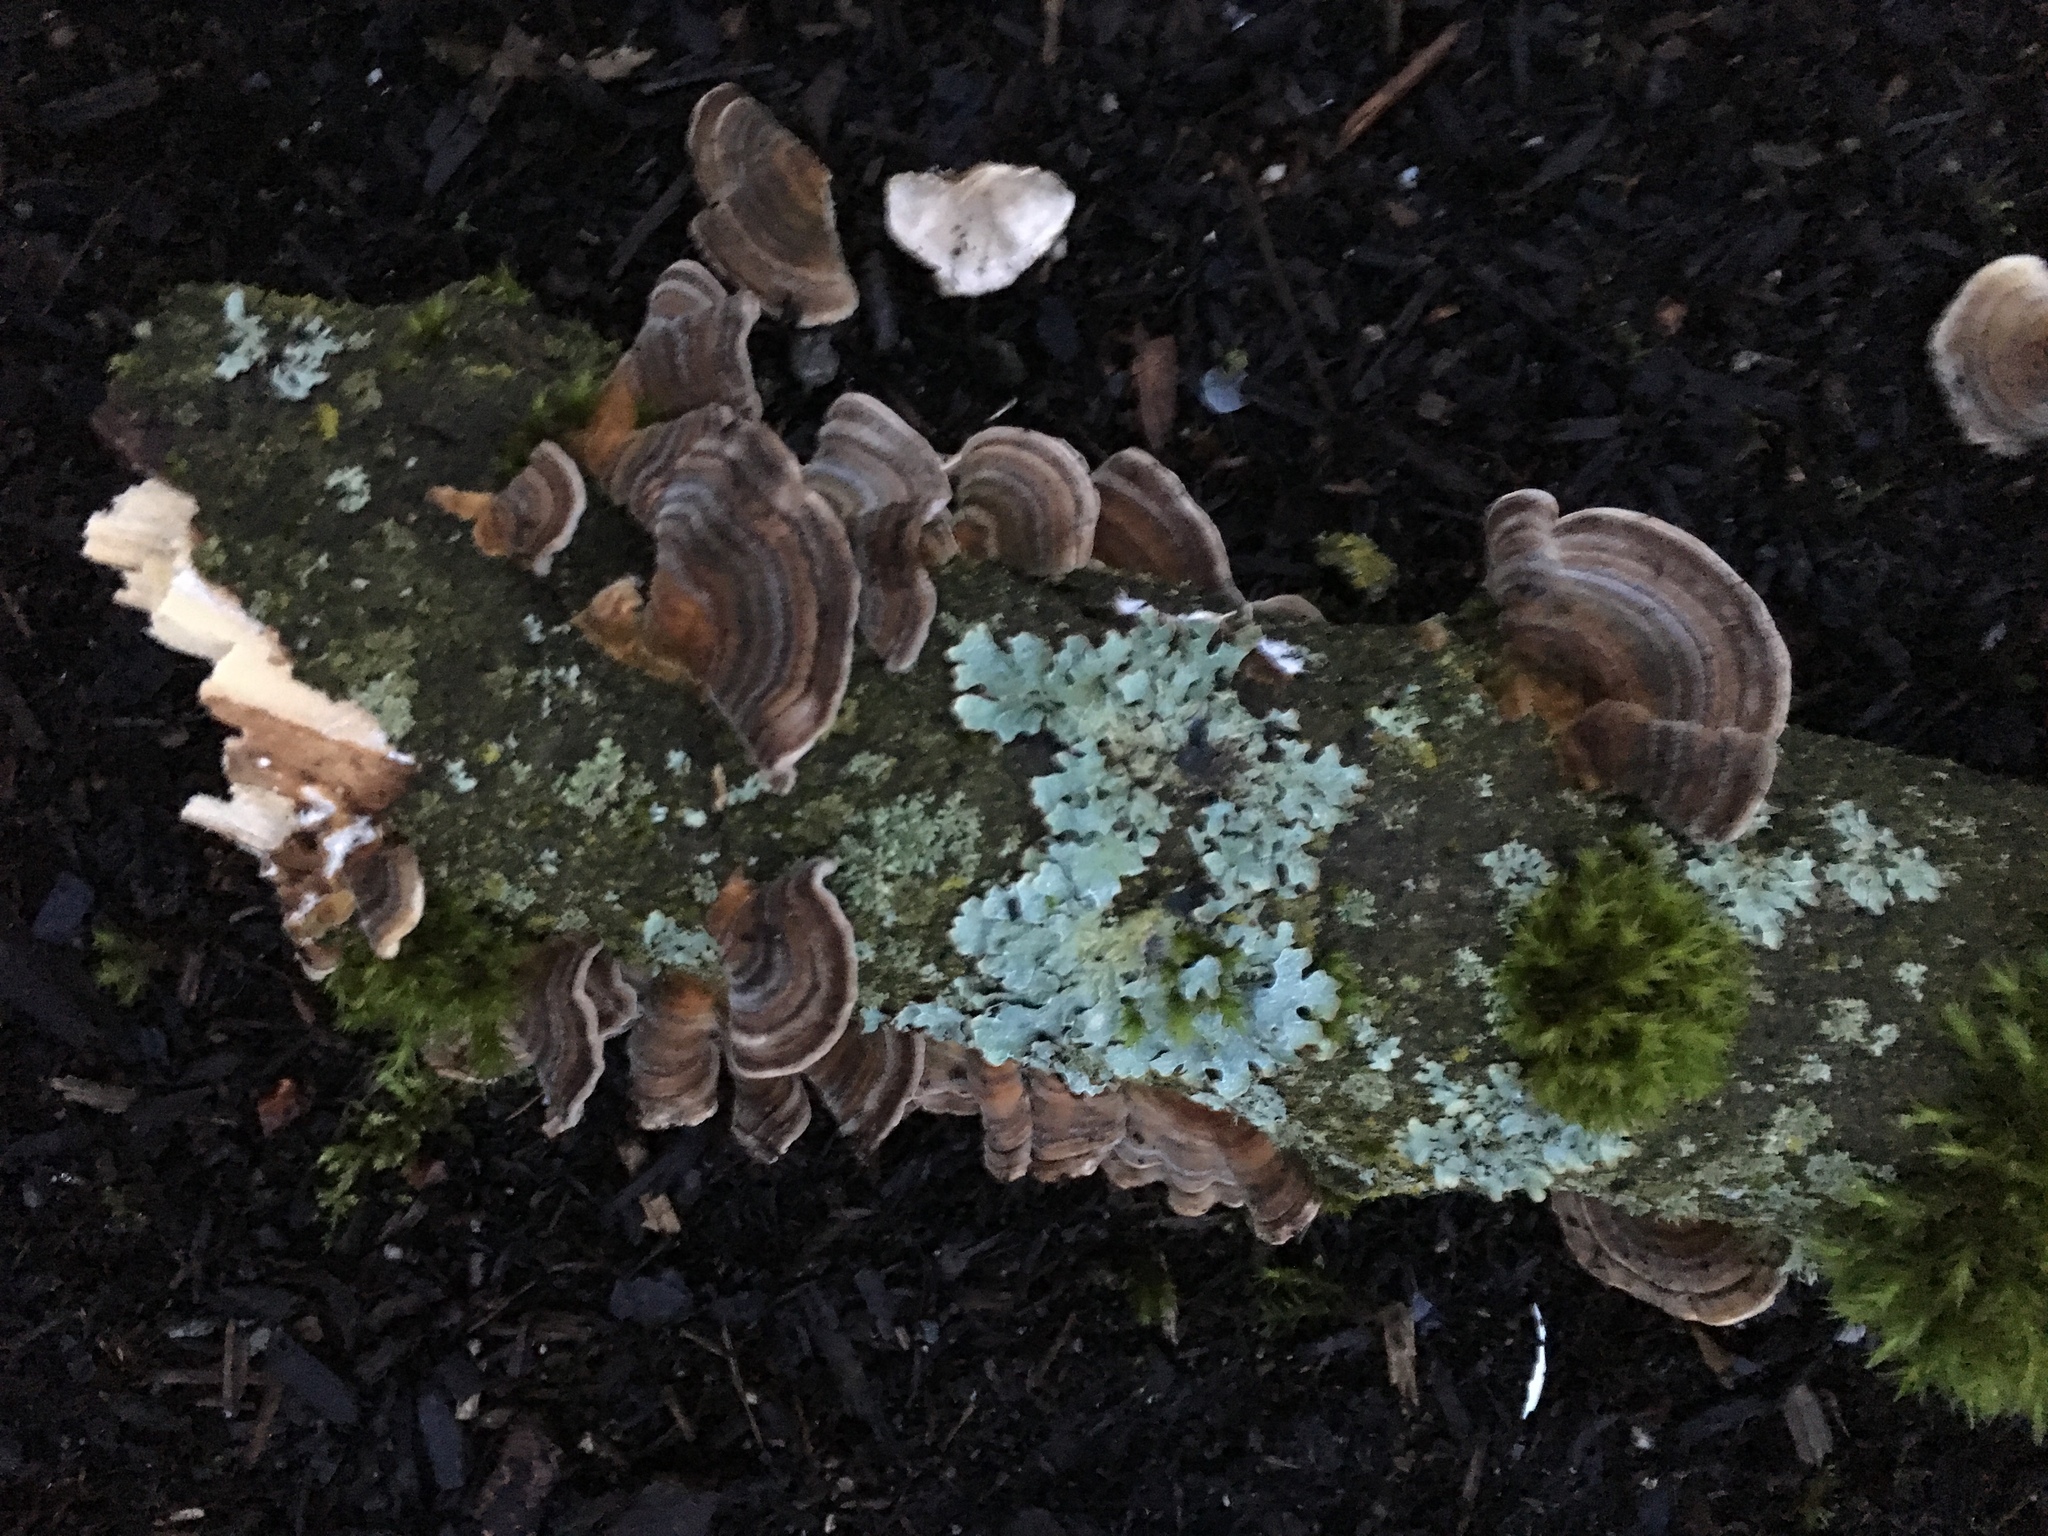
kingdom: Fungi
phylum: Basidiomycota
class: Agaricomycetes
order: Polyporales
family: Polyporaceae
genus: Trametes
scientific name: Trametes versicolor
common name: Turkeytail
